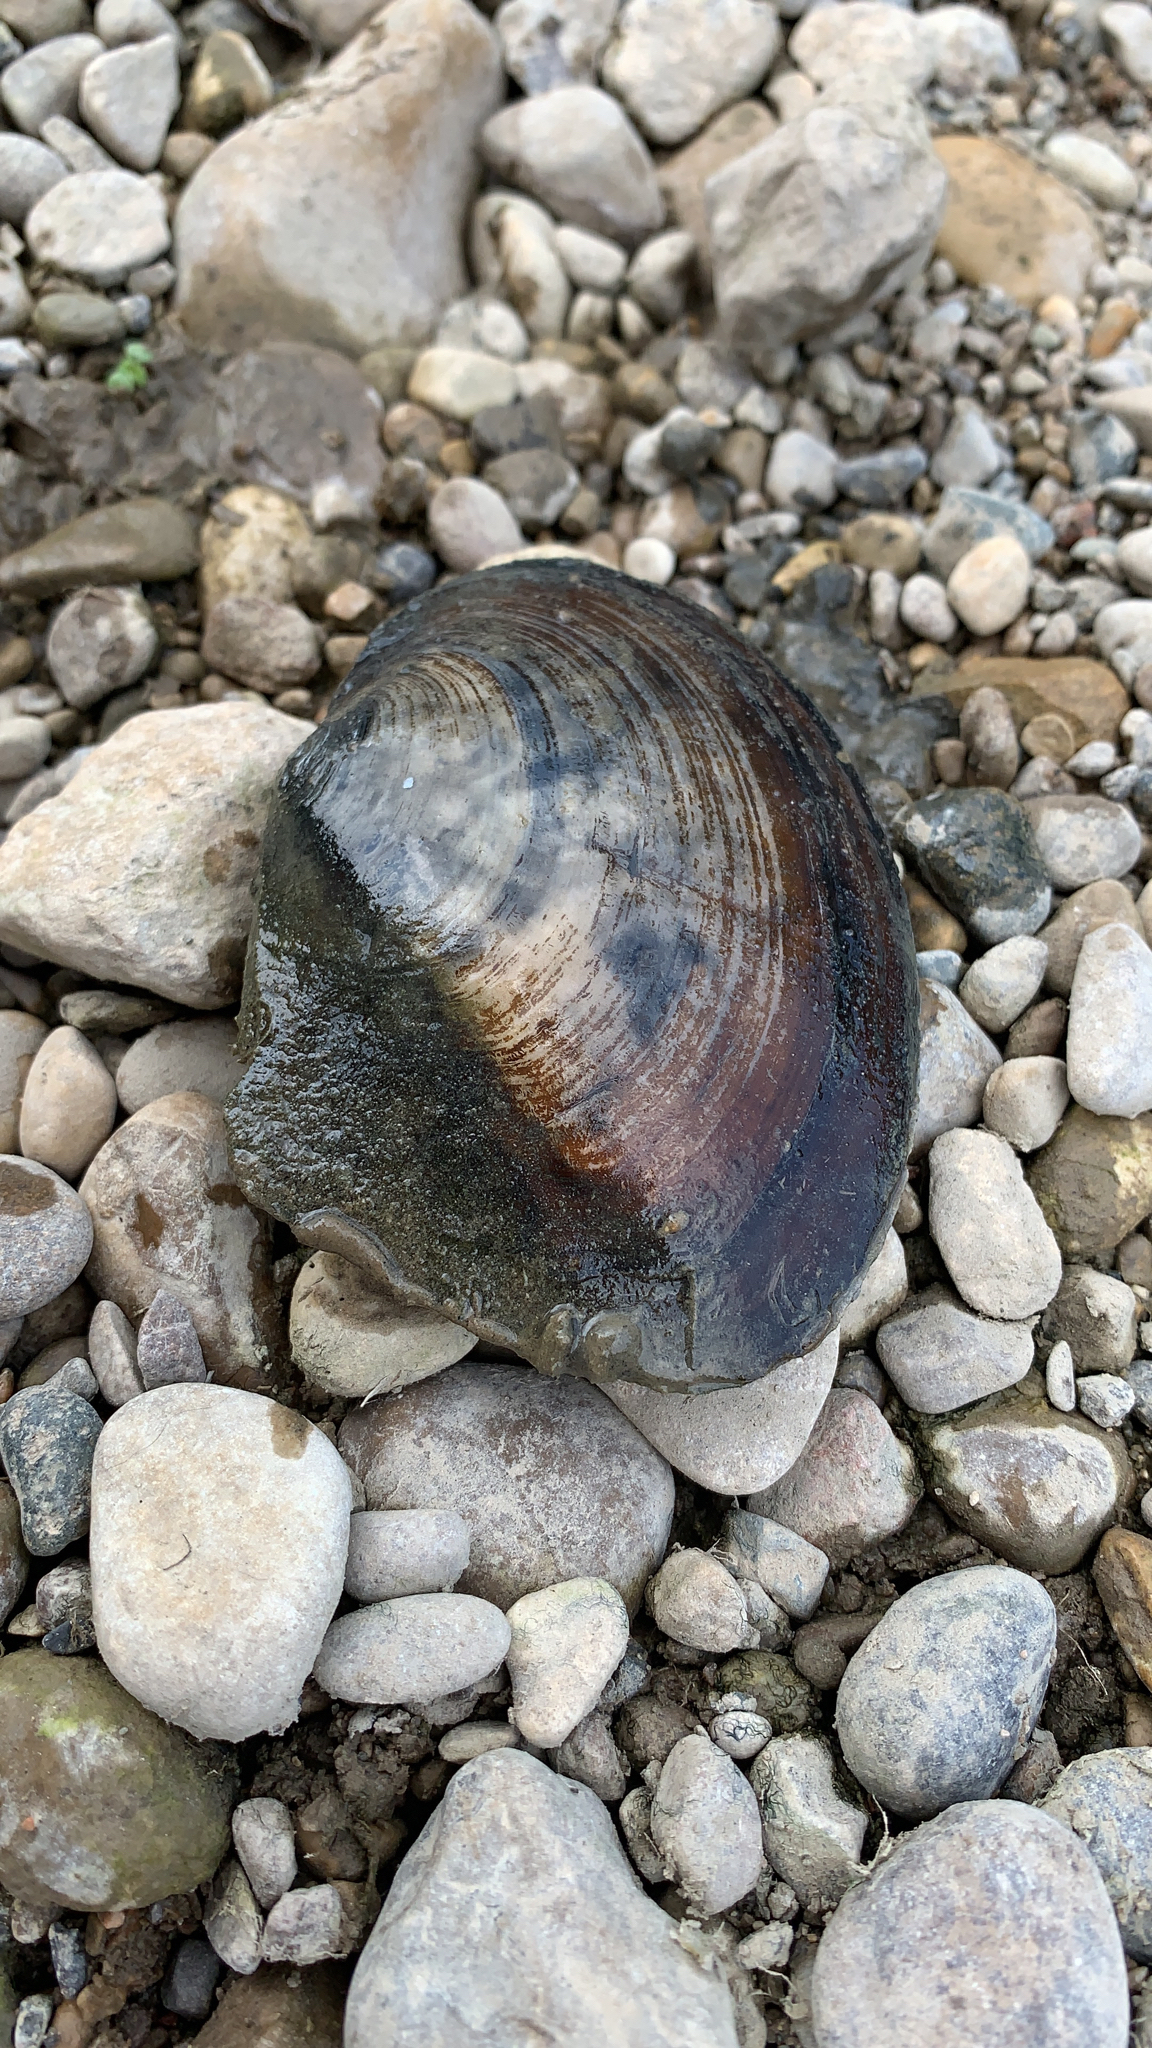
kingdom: Animalia
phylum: Mollusca
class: Bivalvia
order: Unionida
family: Unionidae
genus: Lasmigona
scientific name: Lasmigona complanata
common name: White heelsplitter
